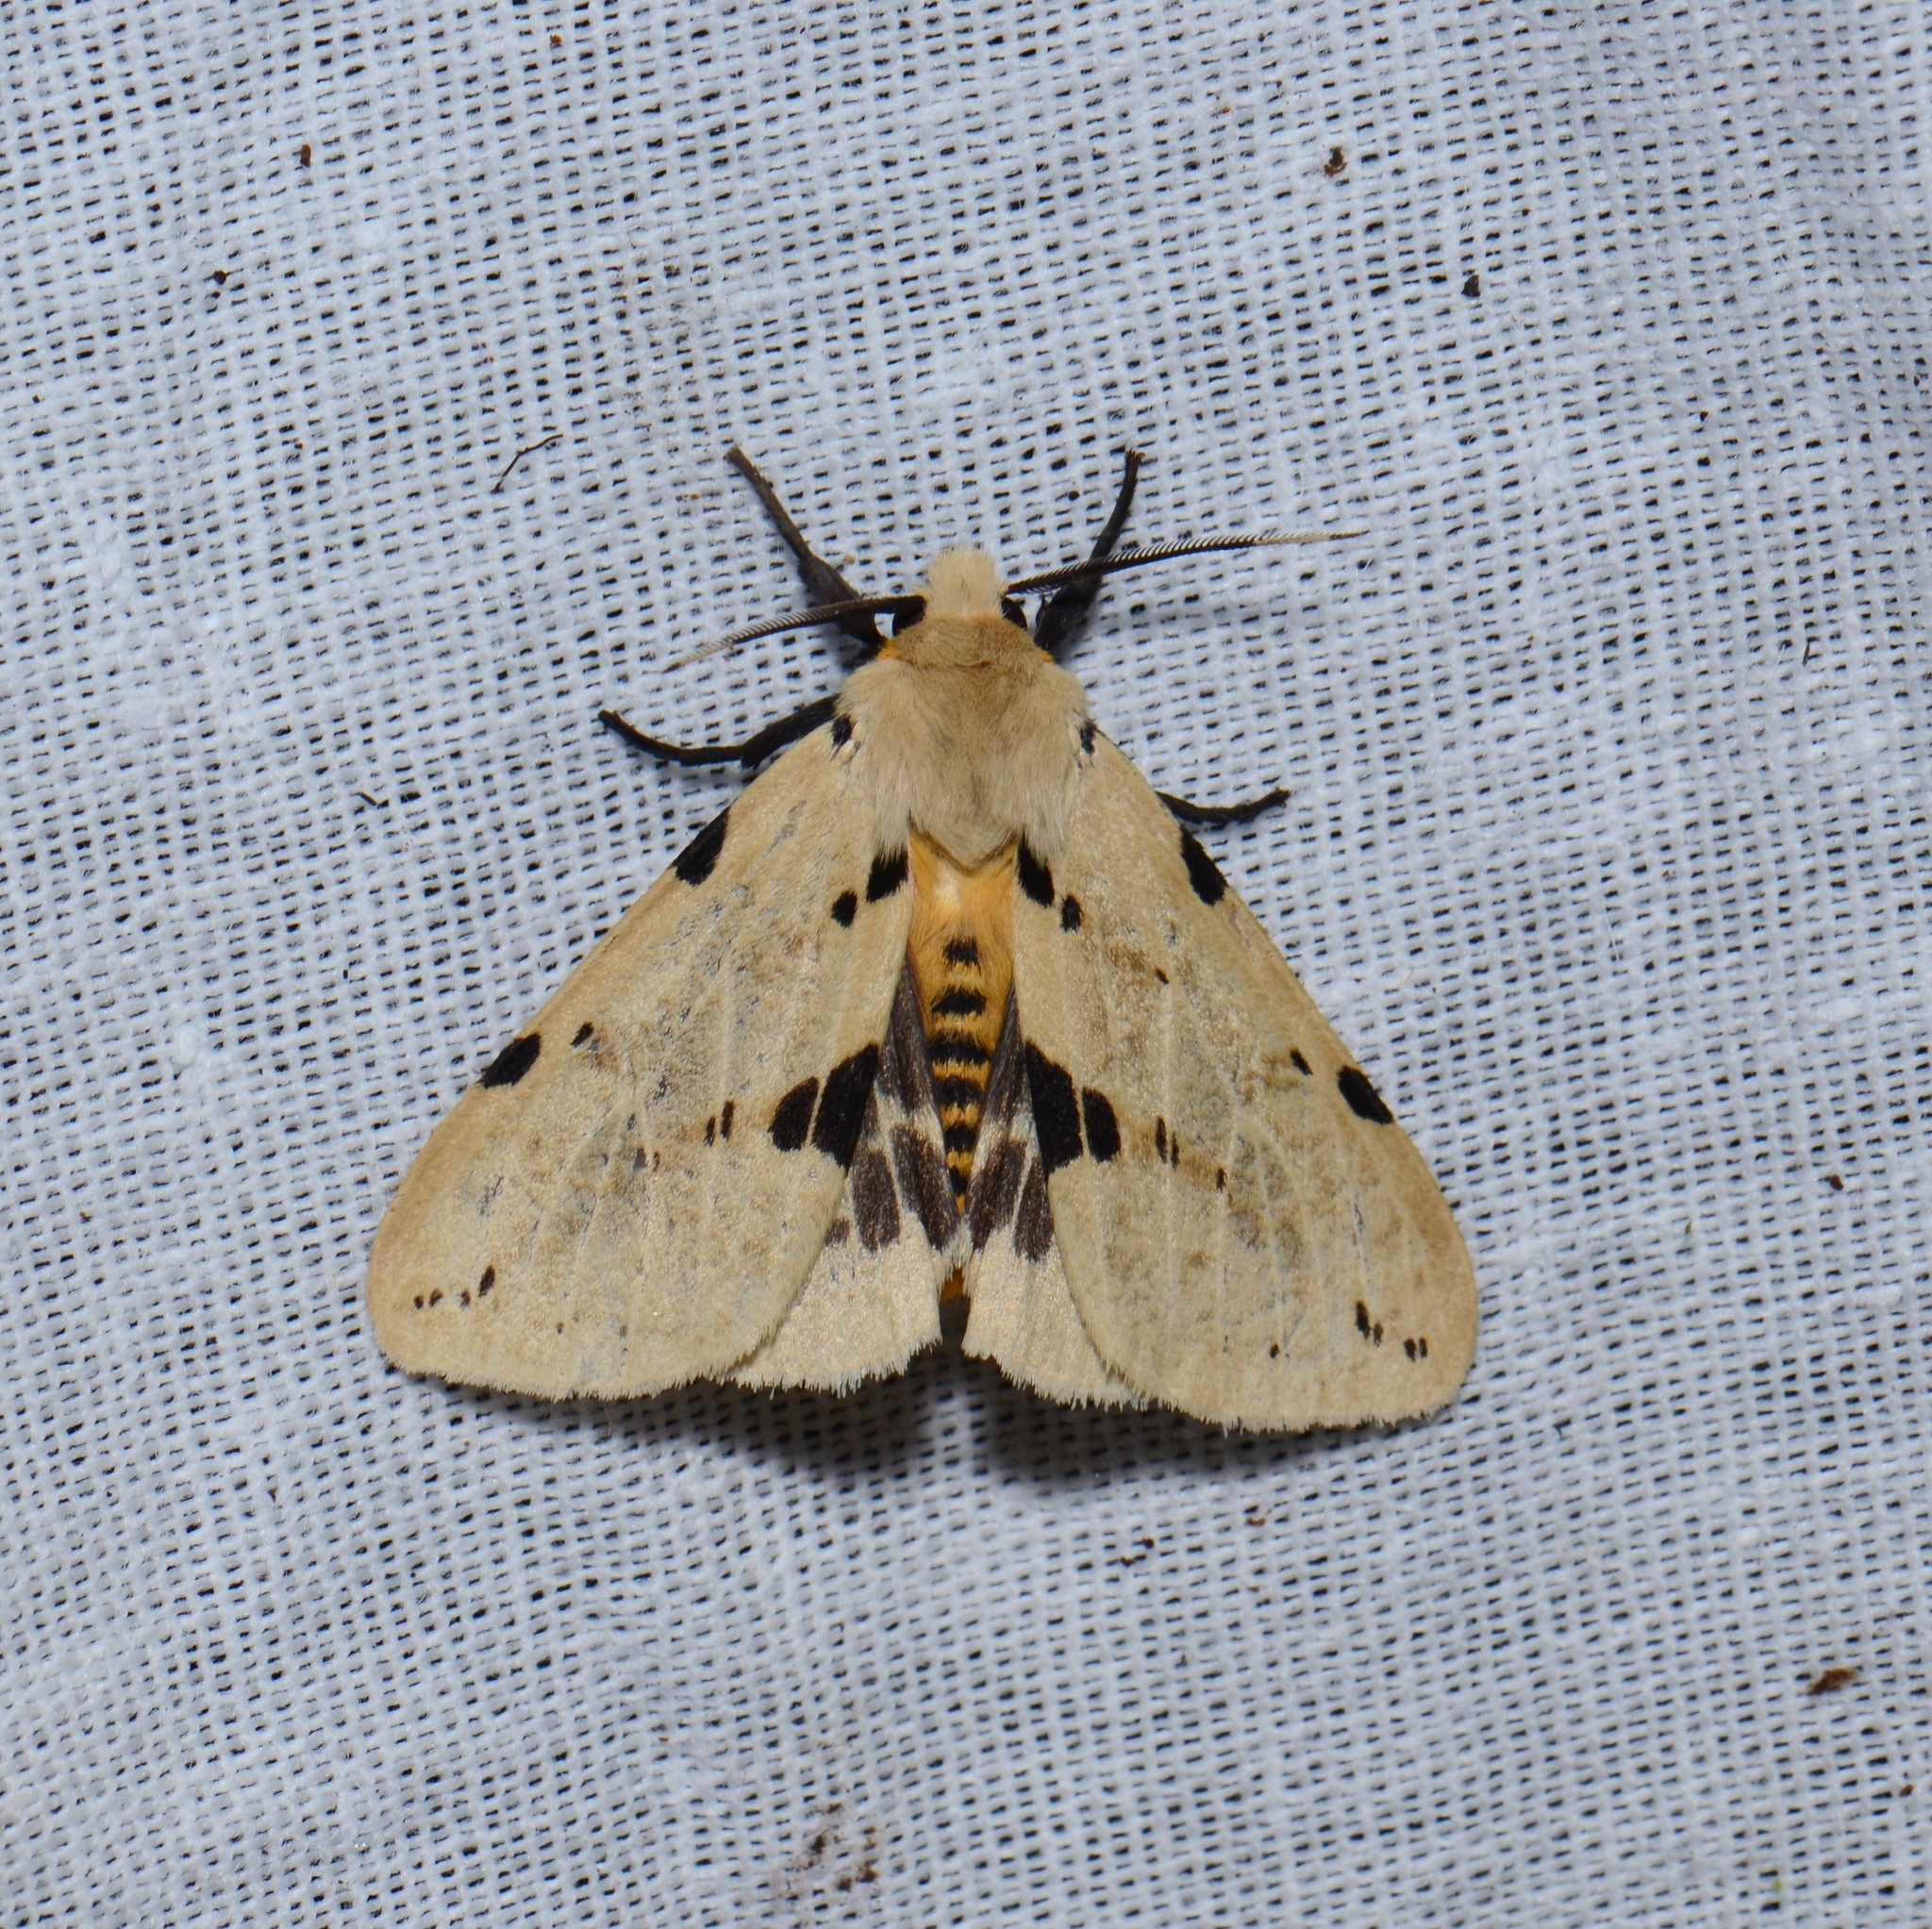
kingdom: Animalia
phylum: Arthropoda
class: Insecta
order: Lepidoptera
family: Erebidae
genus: Spilarctia
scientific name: Spilarctia lutea
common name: Buff ermine
